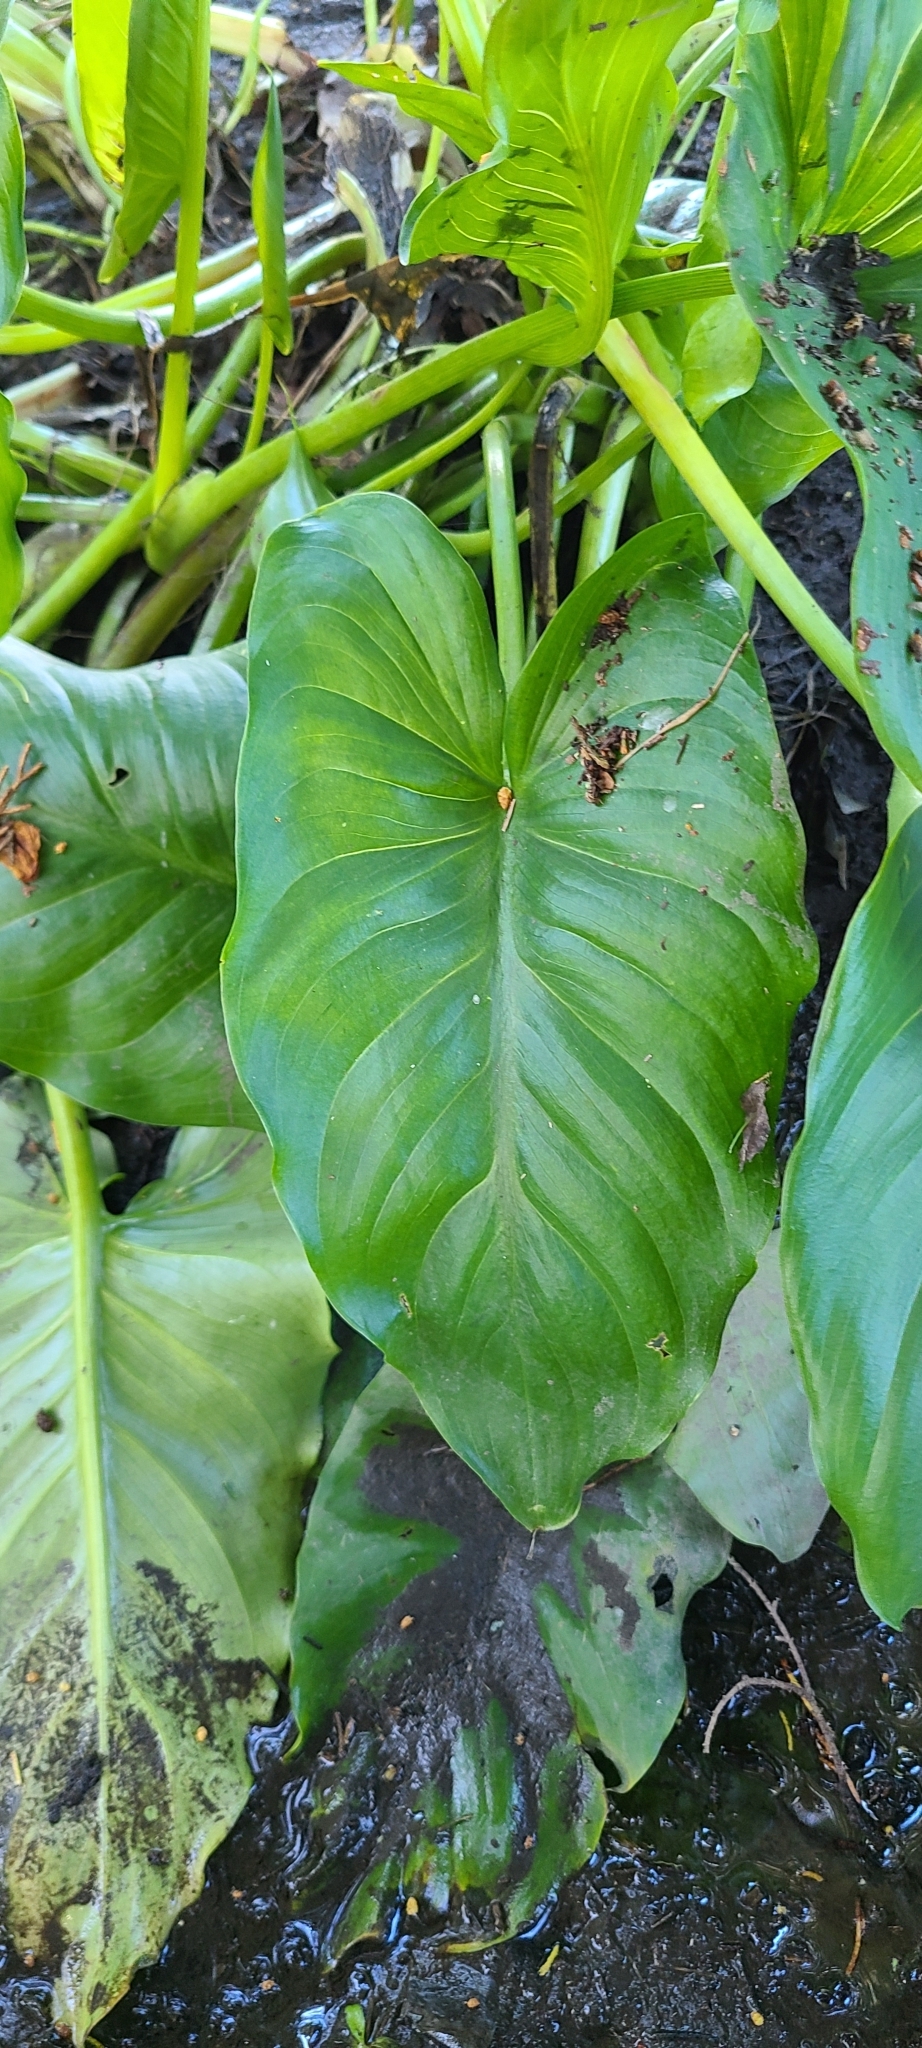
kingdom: Plantae
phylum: Tracheophyta
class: Liliopsida
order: Alismatales
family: Araceae
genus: Zantedeschia
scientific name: Zantedeschia aethiopica
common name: Altar-lily
